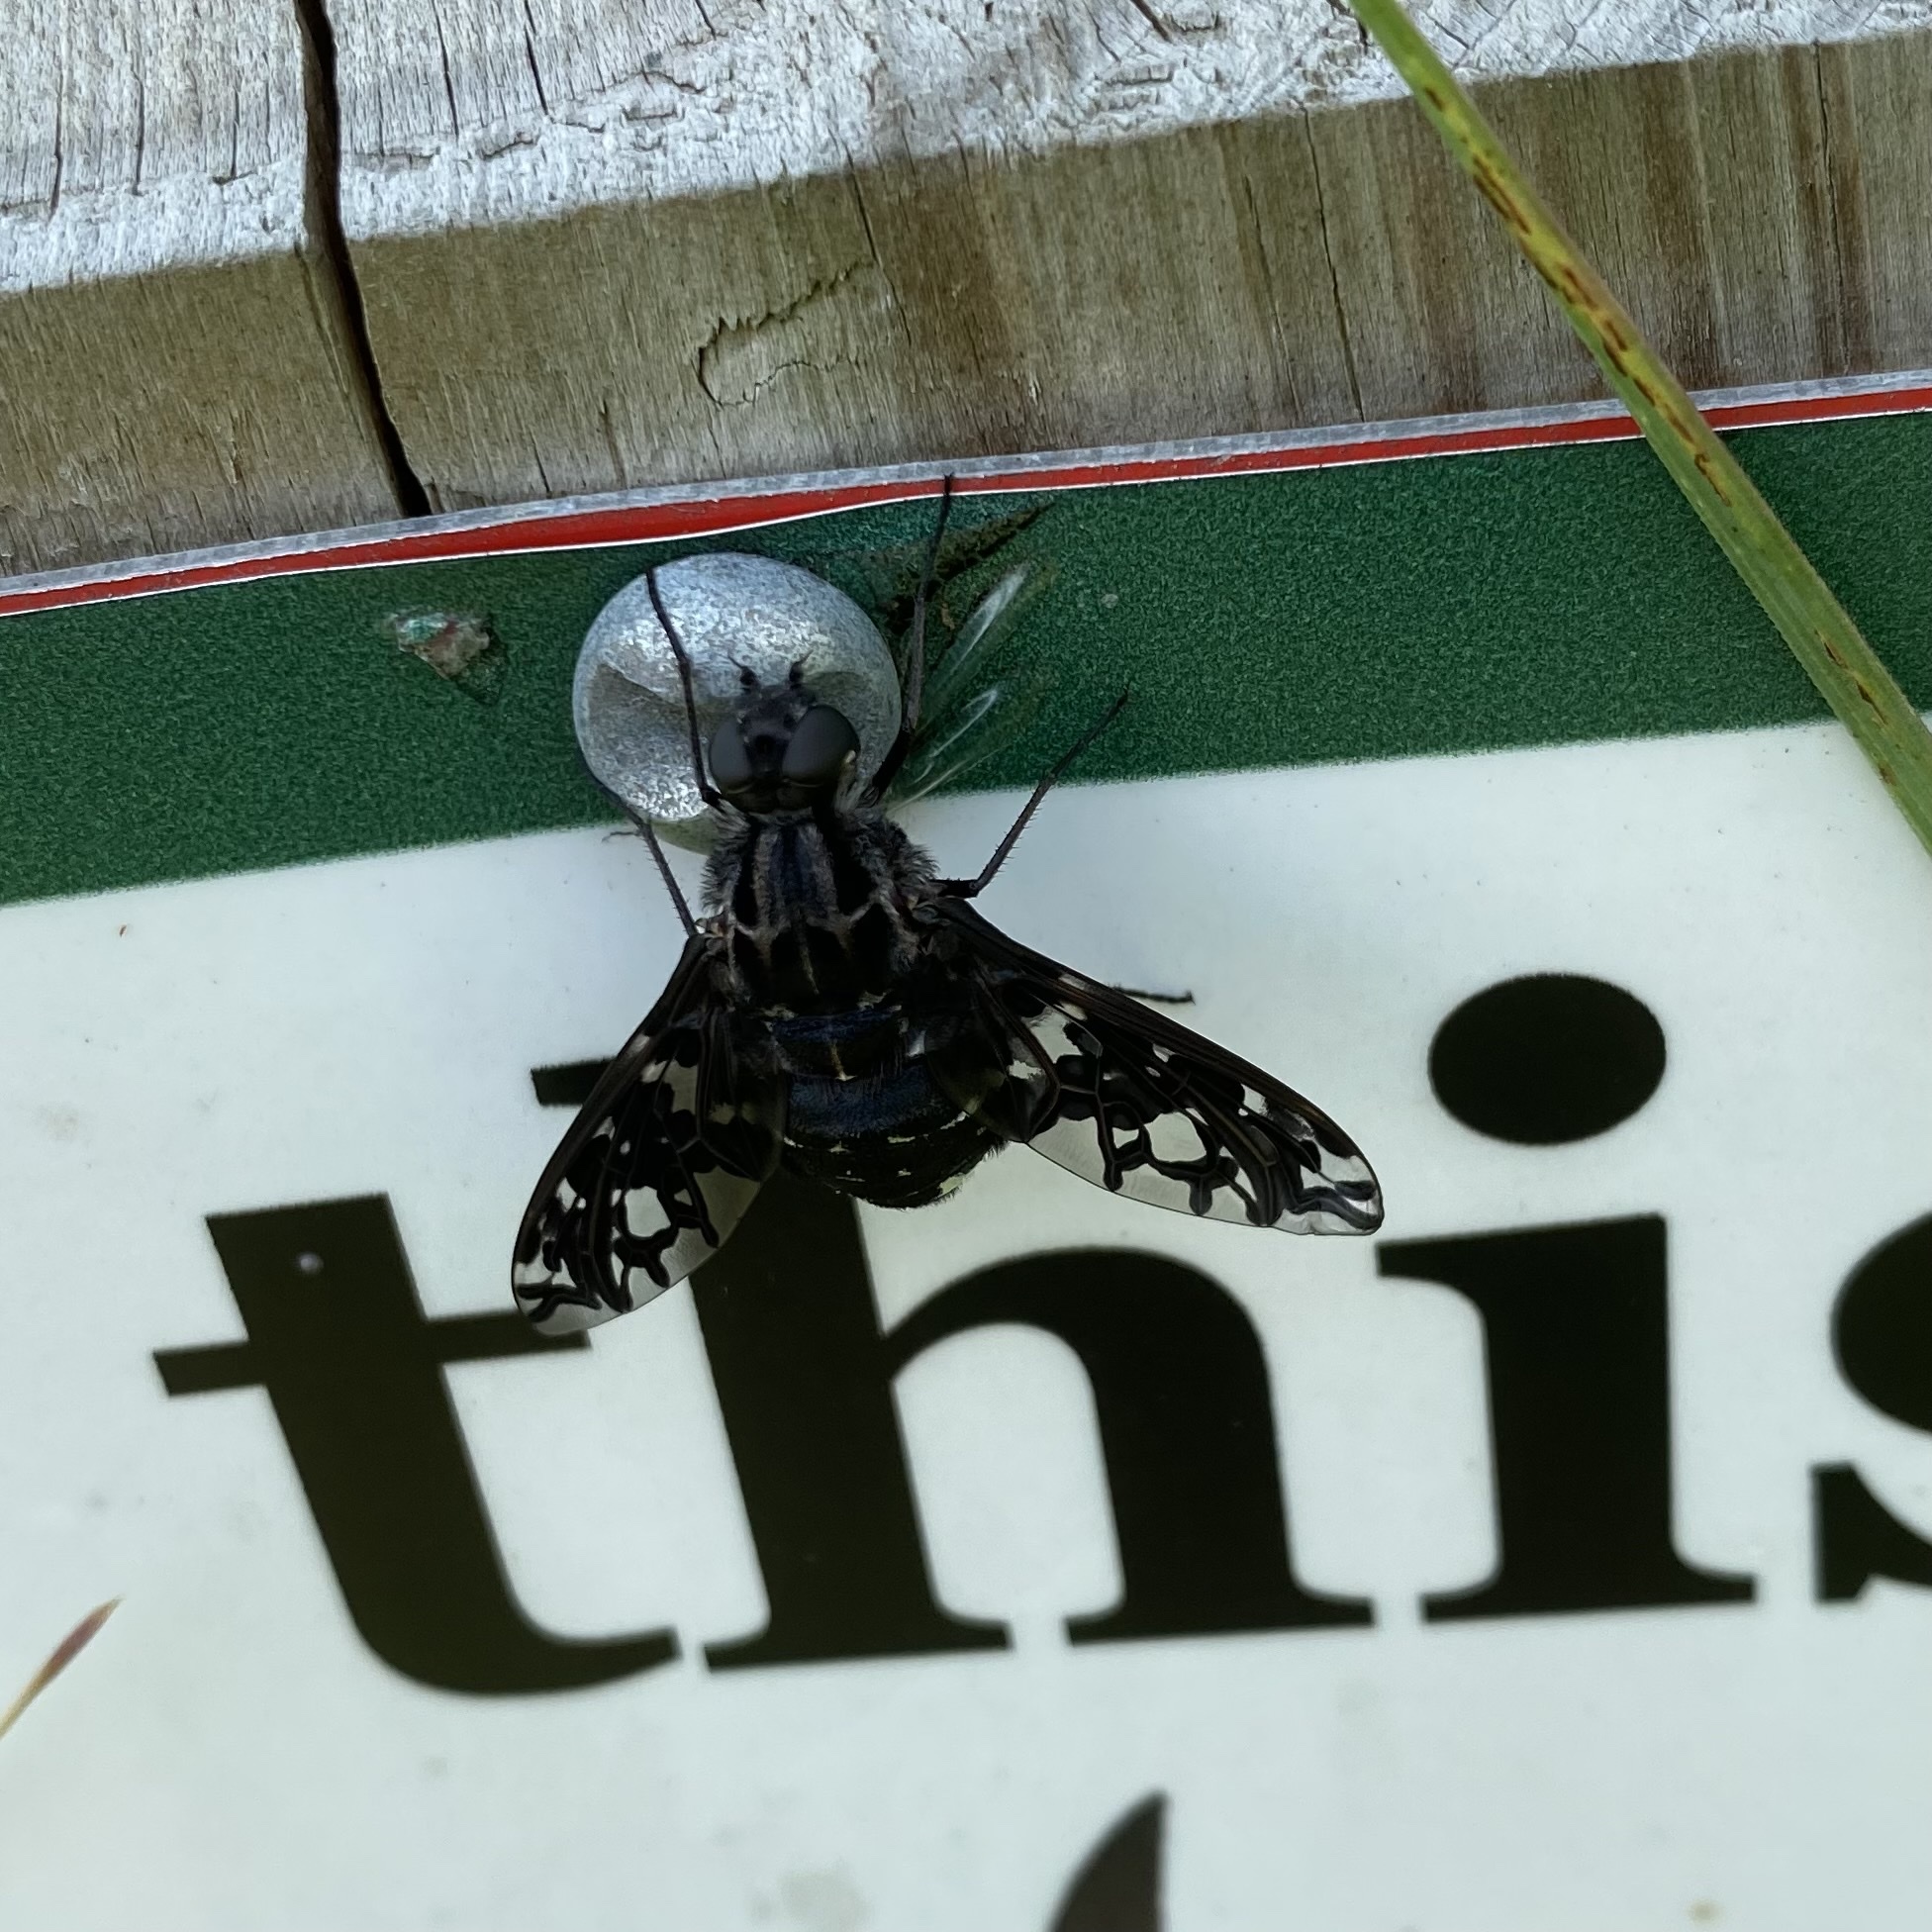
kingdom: Animalia
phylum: Arthropoda
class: Insecta
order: Diptera
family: Bombyliidae
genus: Xenox
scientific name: Xenox tigrinus
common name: Tiger bee fly
